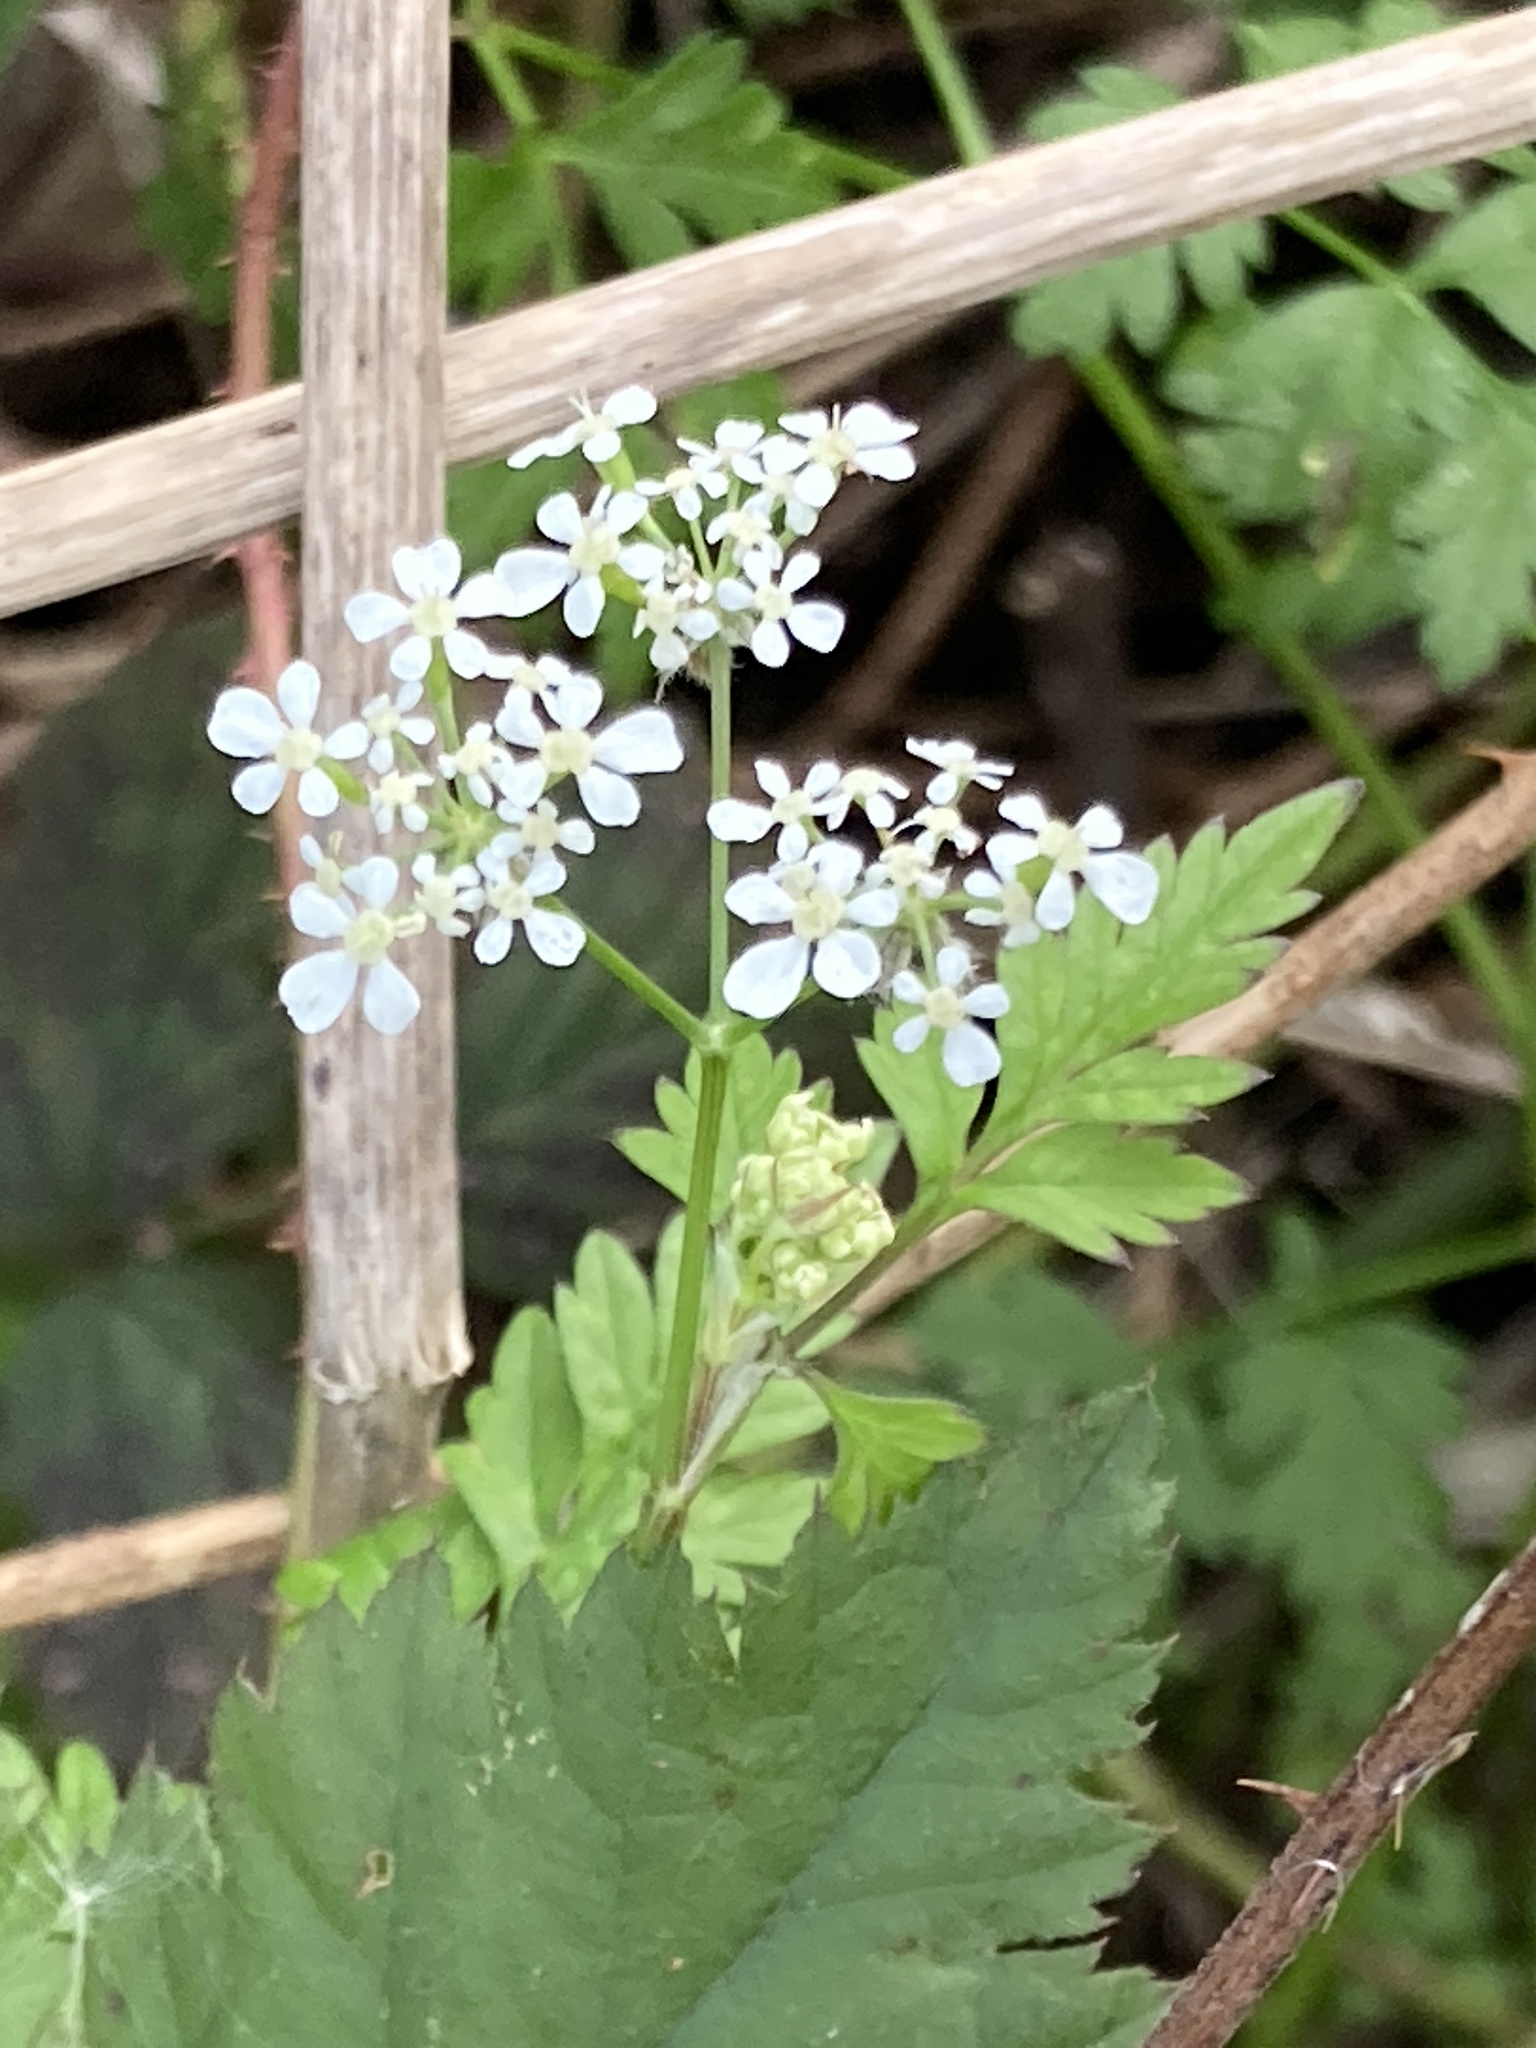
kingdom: Plantae
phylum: Tracheophyta
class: Magnoliopsida
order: Apiales
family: Apiaceae
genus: Anthriscus
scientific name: Anthriscus sylvestris
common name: Cow parsley
